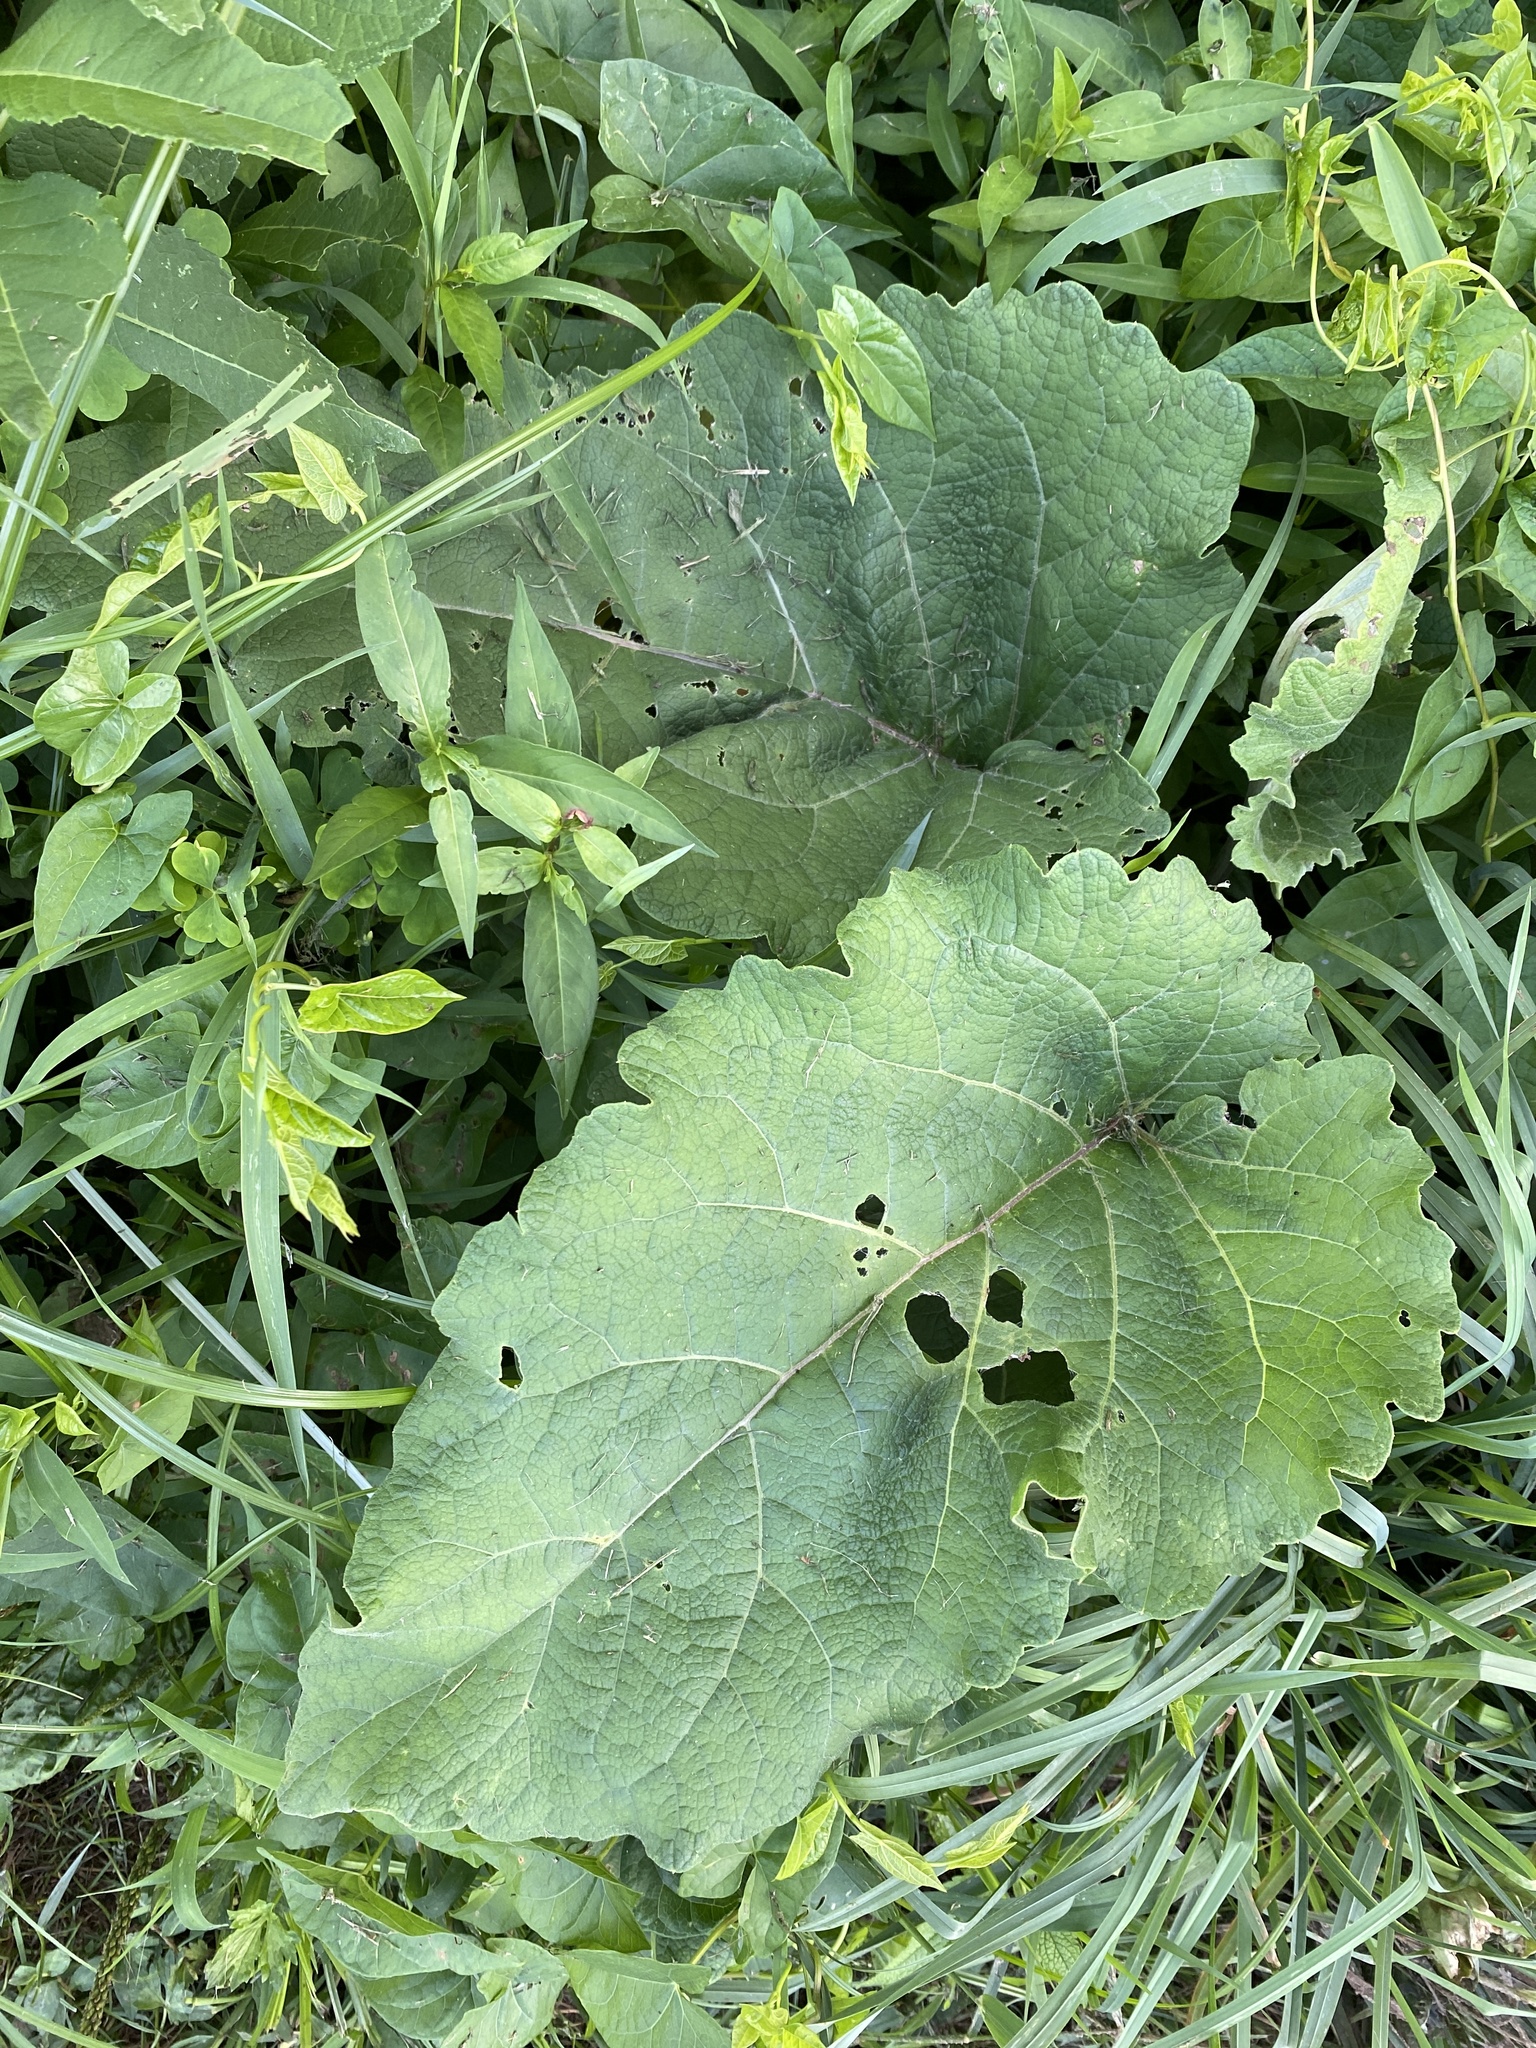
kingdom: Plantae
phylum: Tracheophyta
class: Magnoliopsida
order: Asterales
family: Asteraceae
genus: Arctium
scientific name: Arctium minus
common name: Lesser burdock
